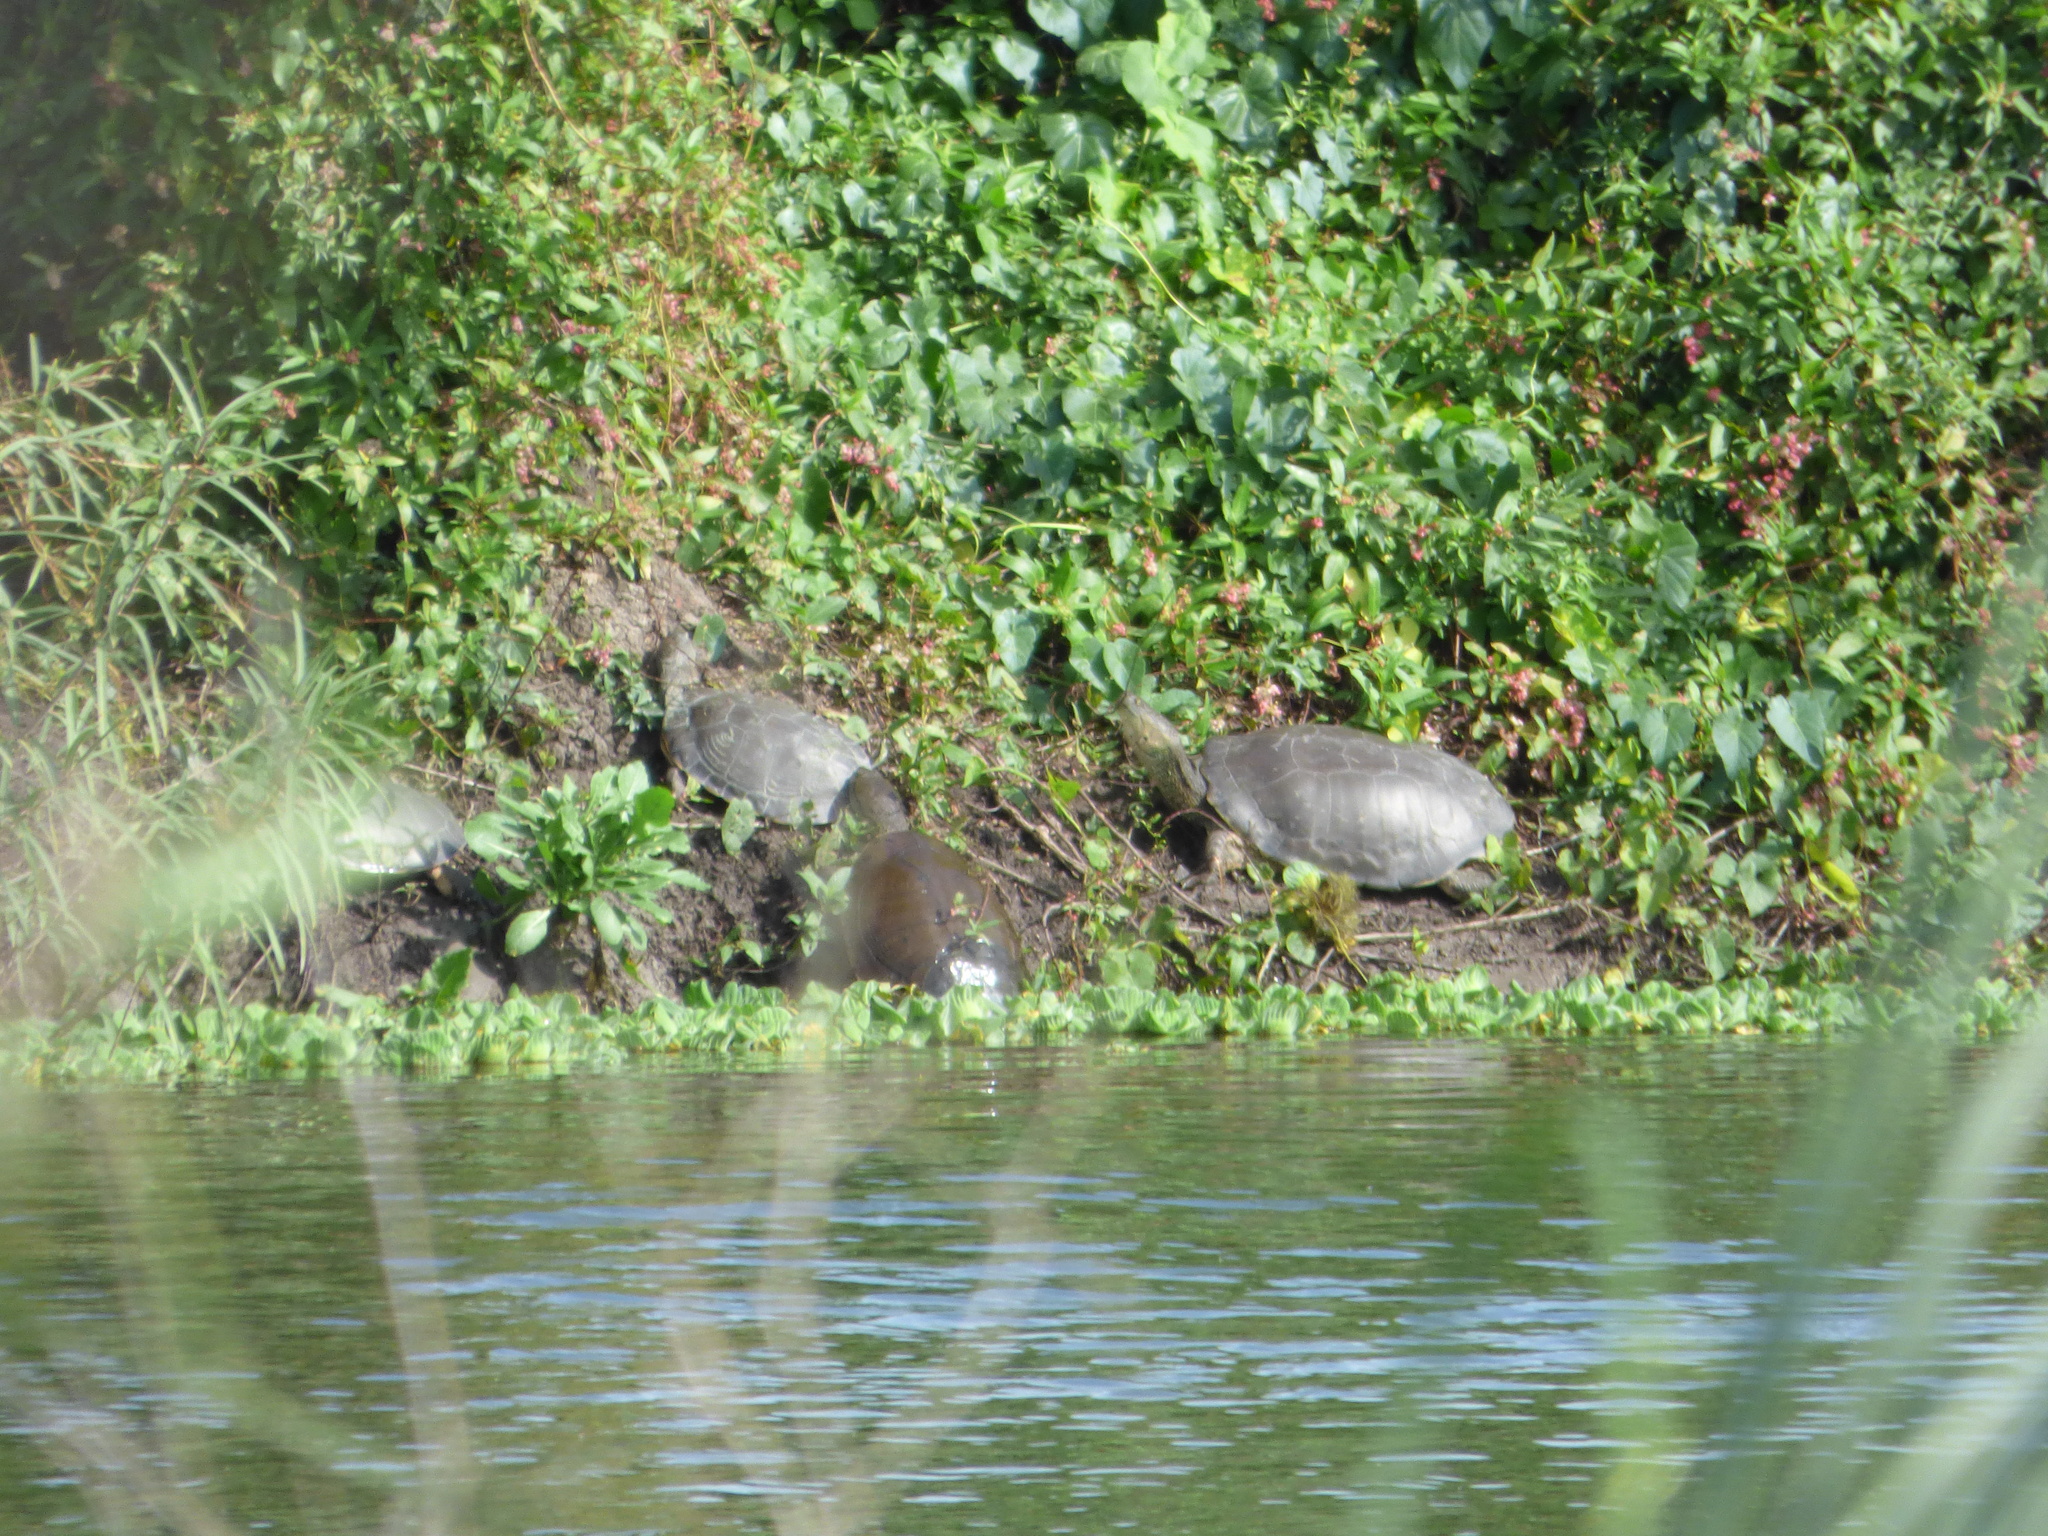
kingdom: Animalia
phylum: Chordata
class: Testudines
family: Chelidae
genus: Phrynops
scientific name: Phrynops hilarii
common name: Side-necked turtle of saint hillaire
